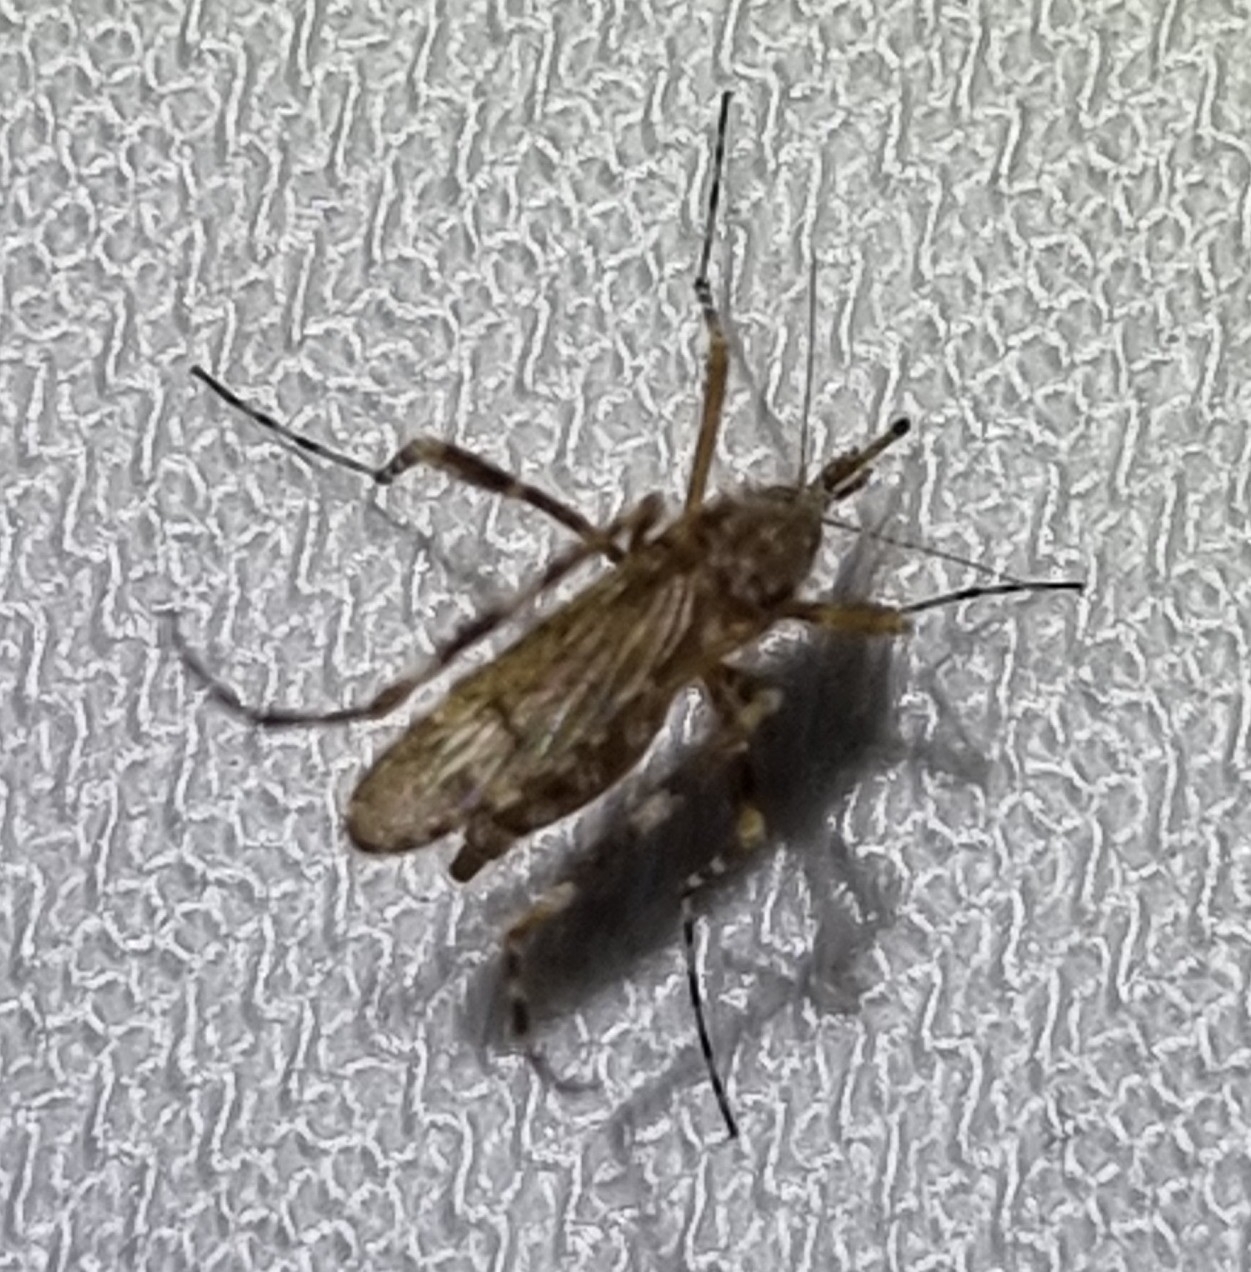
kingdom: Animalia
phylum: Arthropoda
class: Insecta
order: Diptera
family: Culicidae
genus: Aedes
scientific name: Aedes alternans
